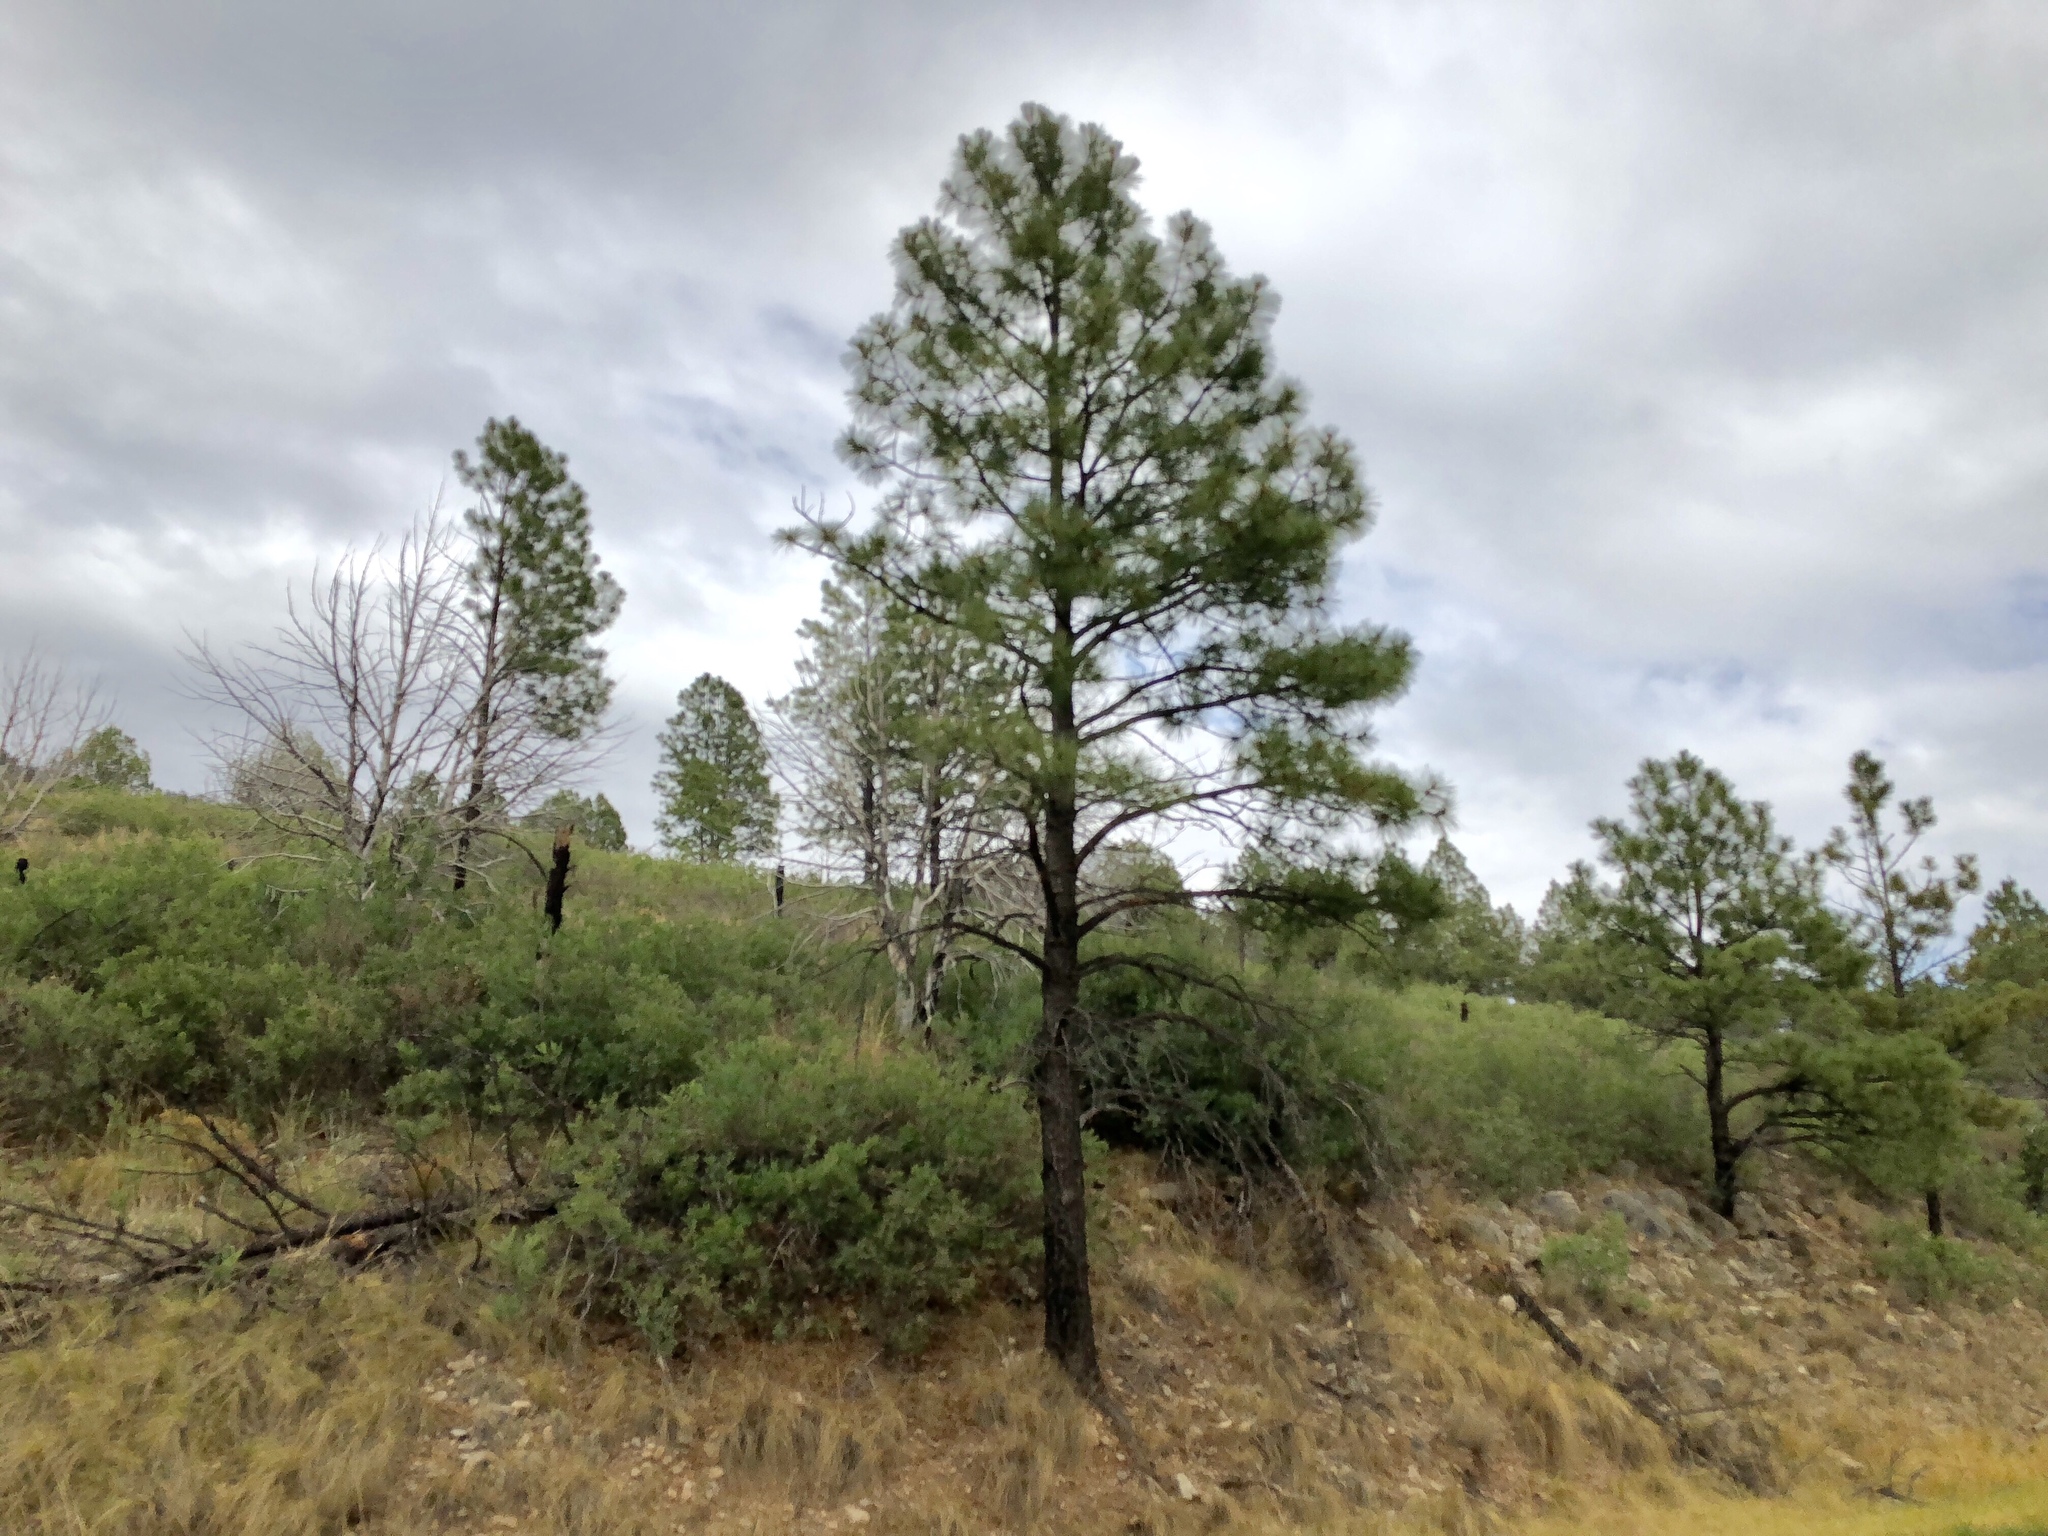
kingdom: Plantae
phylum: Tracheophyta
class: Pinopsida
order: Pinales
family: Pinaceae
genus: Pinus
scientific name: Pinus ponderosa
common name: Western yellow-pine
